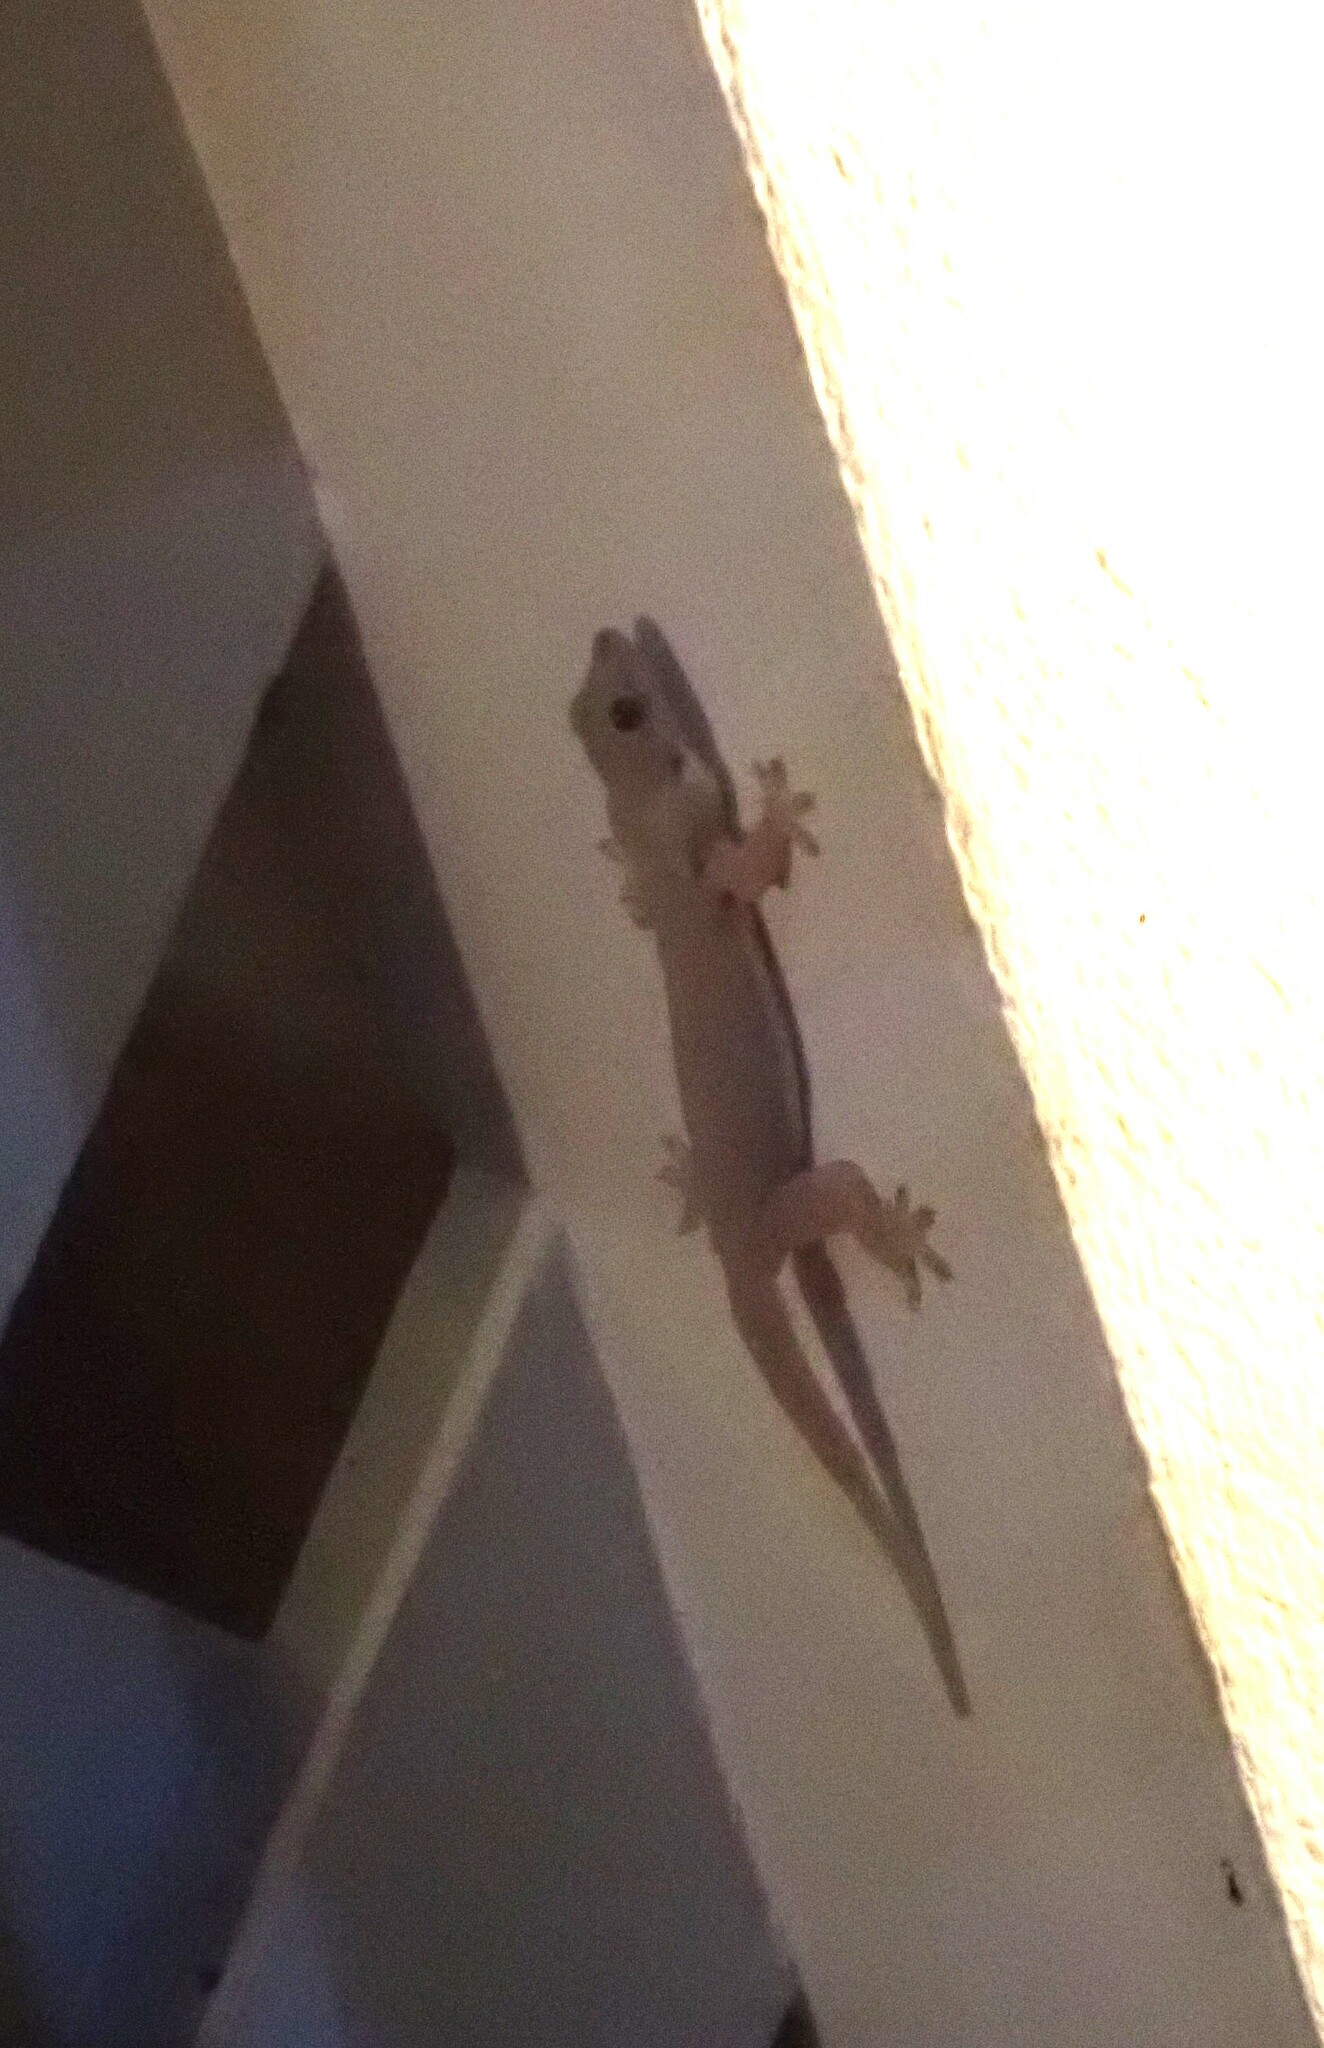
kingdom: Animalia
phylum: Chordata
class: Squamata
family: Gekkonidae
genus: Hemidactylus
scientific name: Hemidactylus platyurus
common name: Flat-tailed house gecko
